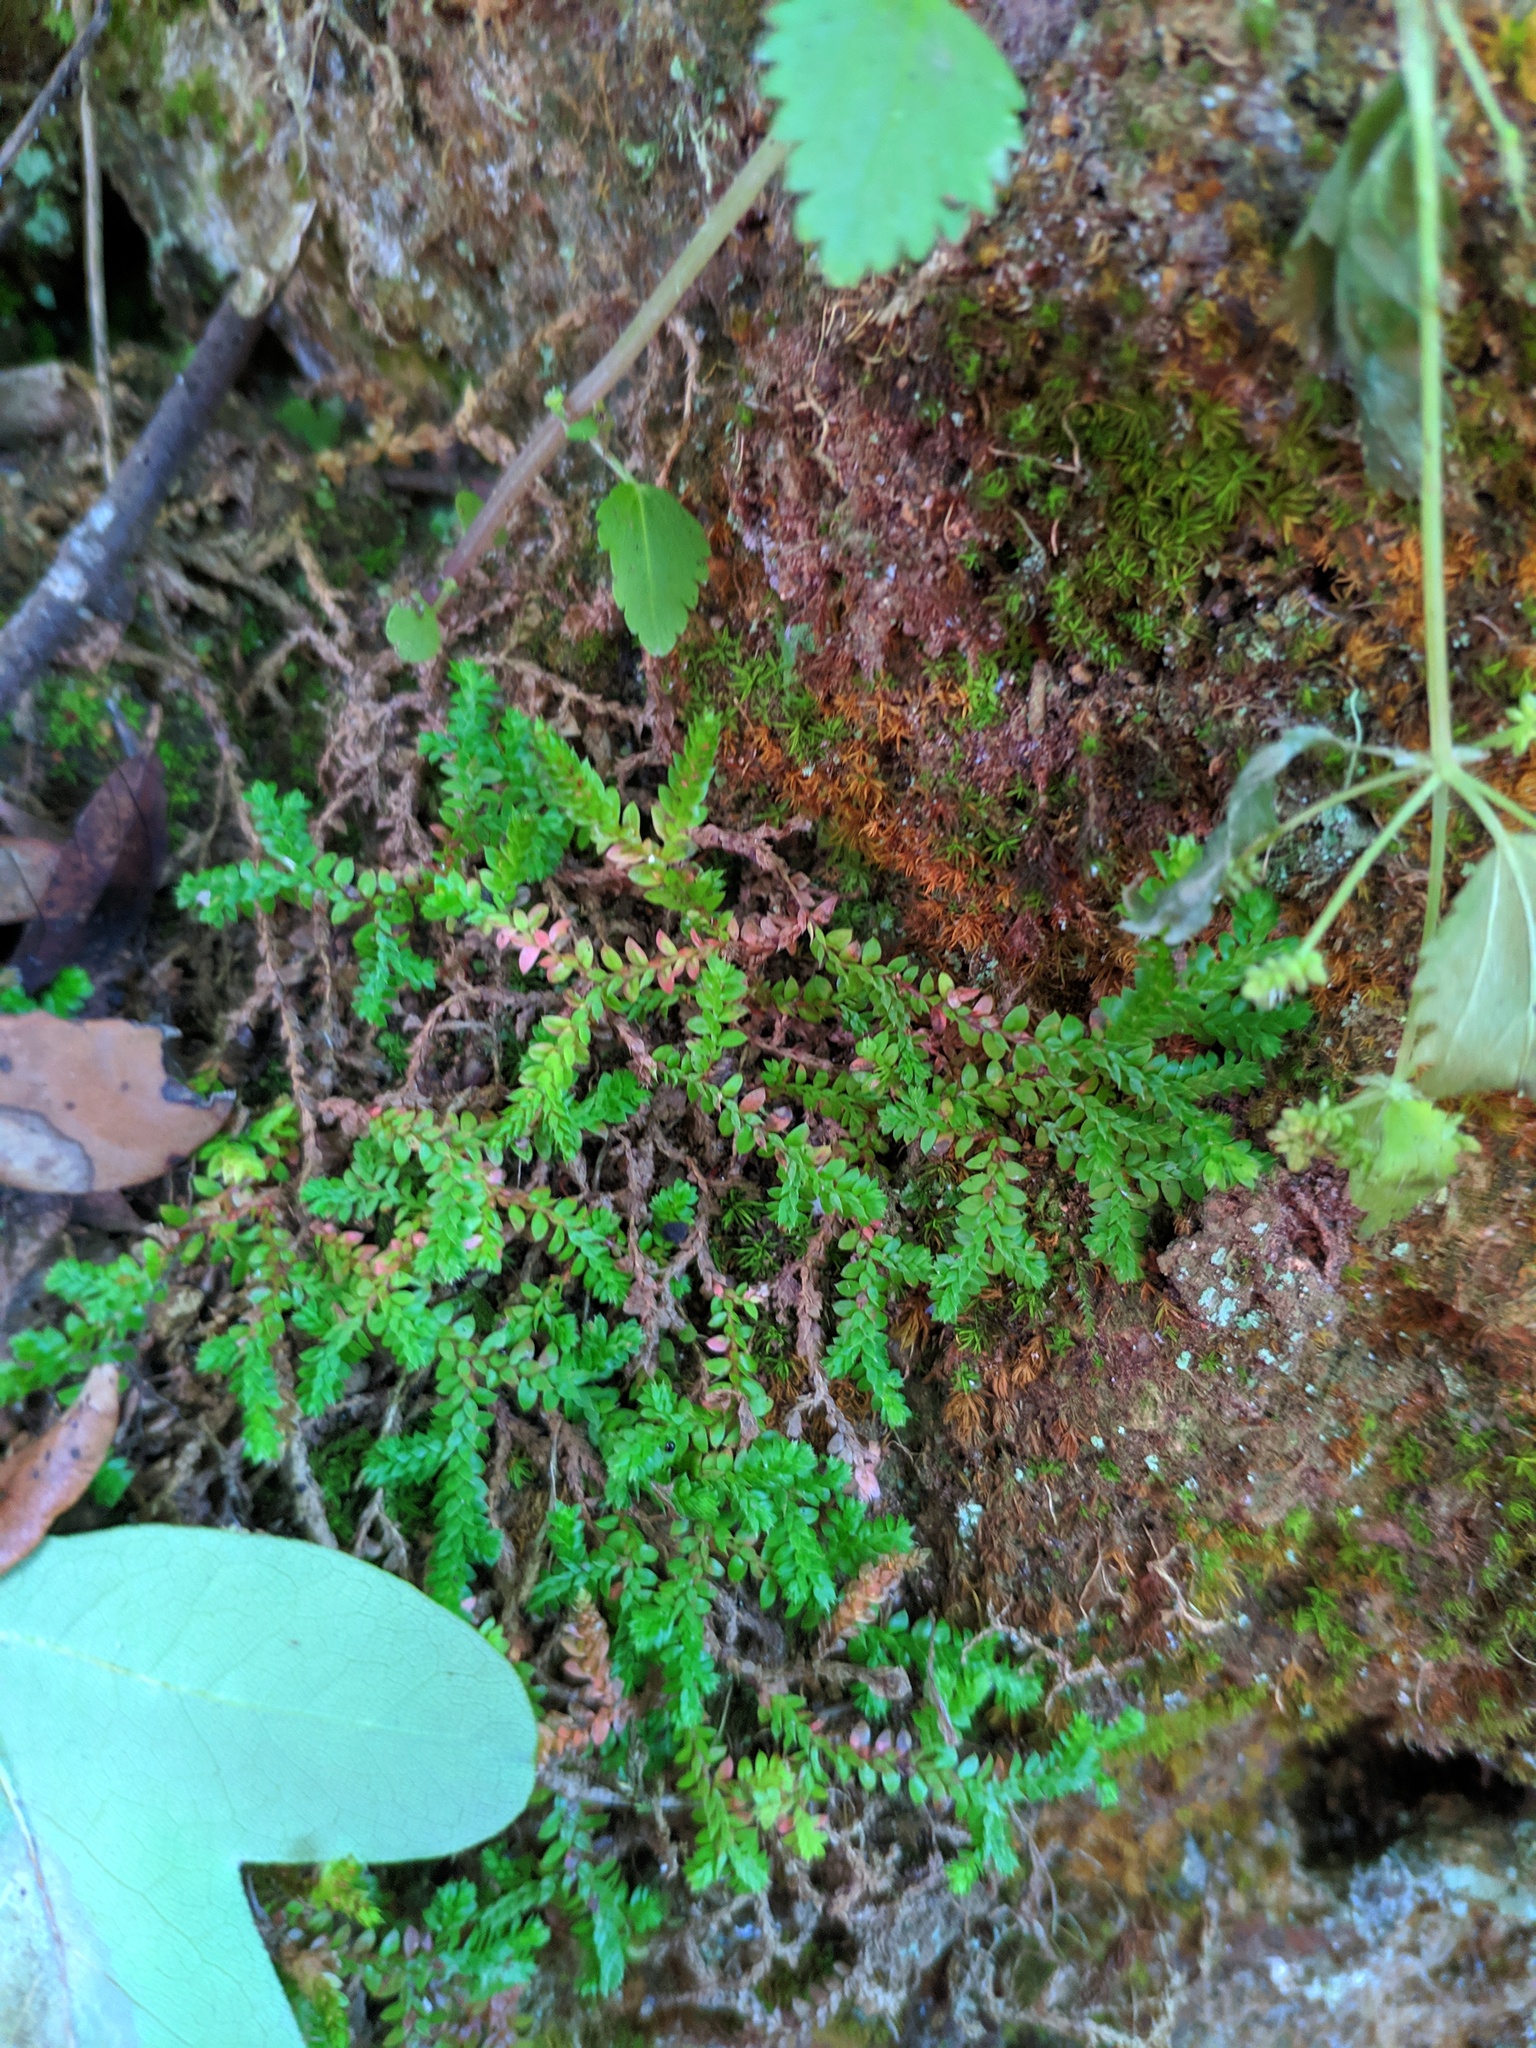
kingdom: Plantae
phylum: Tracheophyta
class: Lycopodiopsida
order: Selaginellales
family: Selaginellaceae
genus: Selaginella
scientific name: Selaginella denticulata
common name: Toothed-leaved clubmoss
